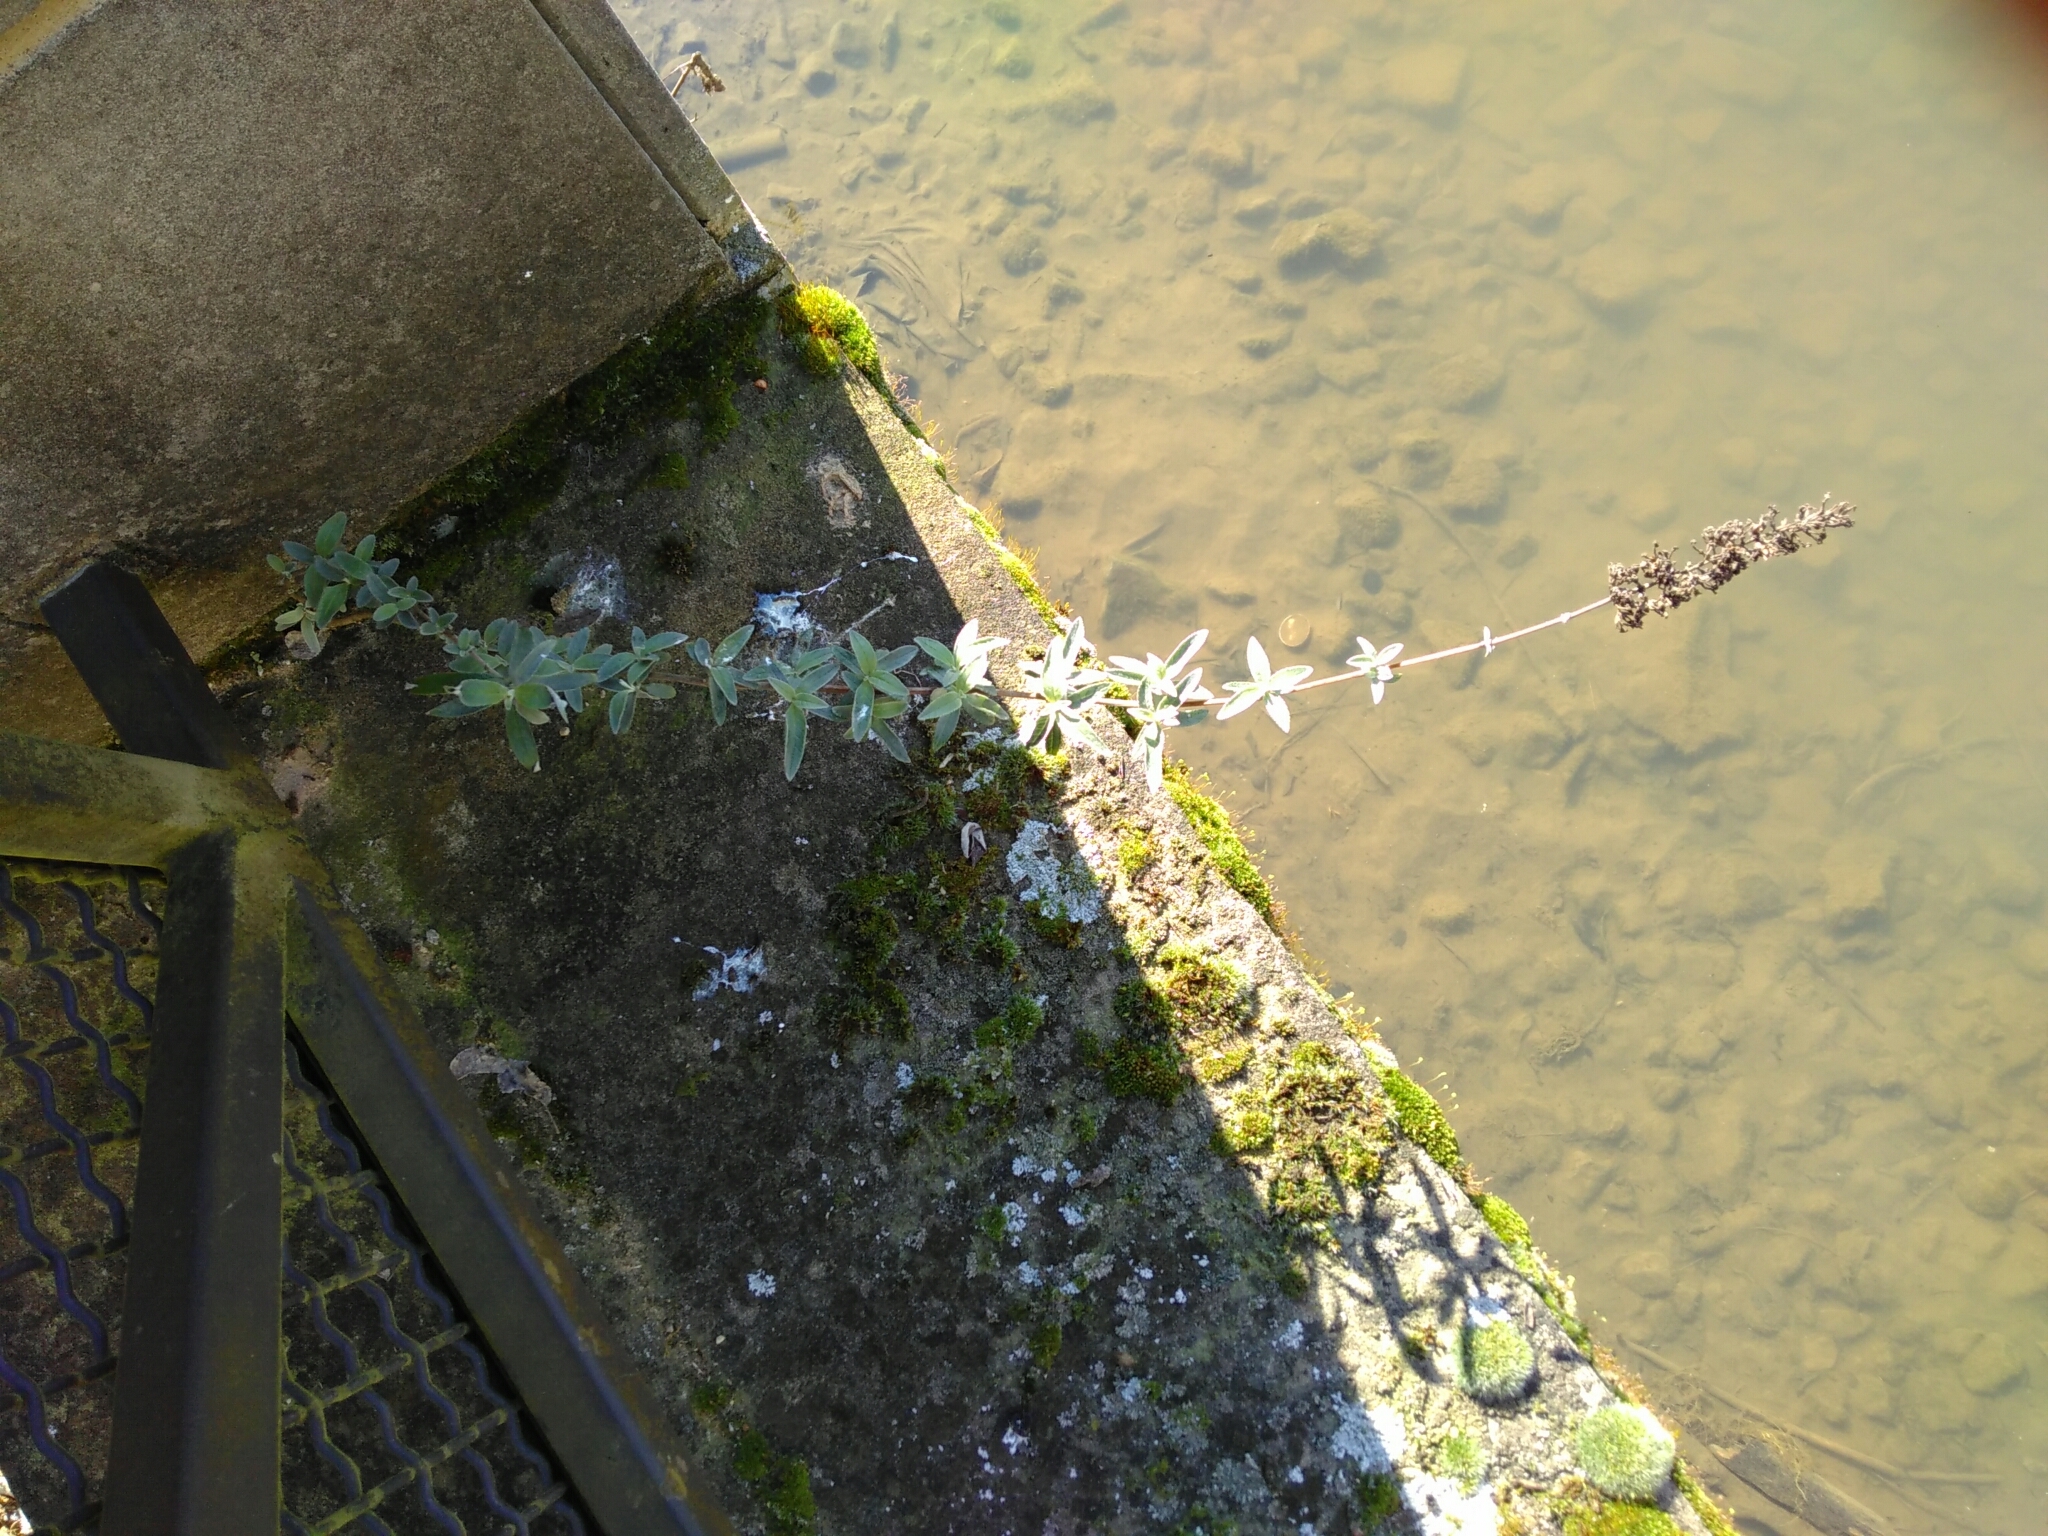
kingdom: Plantae
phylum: Tracheophyta
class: Magnoliopsida
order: Lamiales
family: Scrophulariaceae
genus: Buddleja
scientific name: Buddleja davidii
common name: Butterfly-bush
